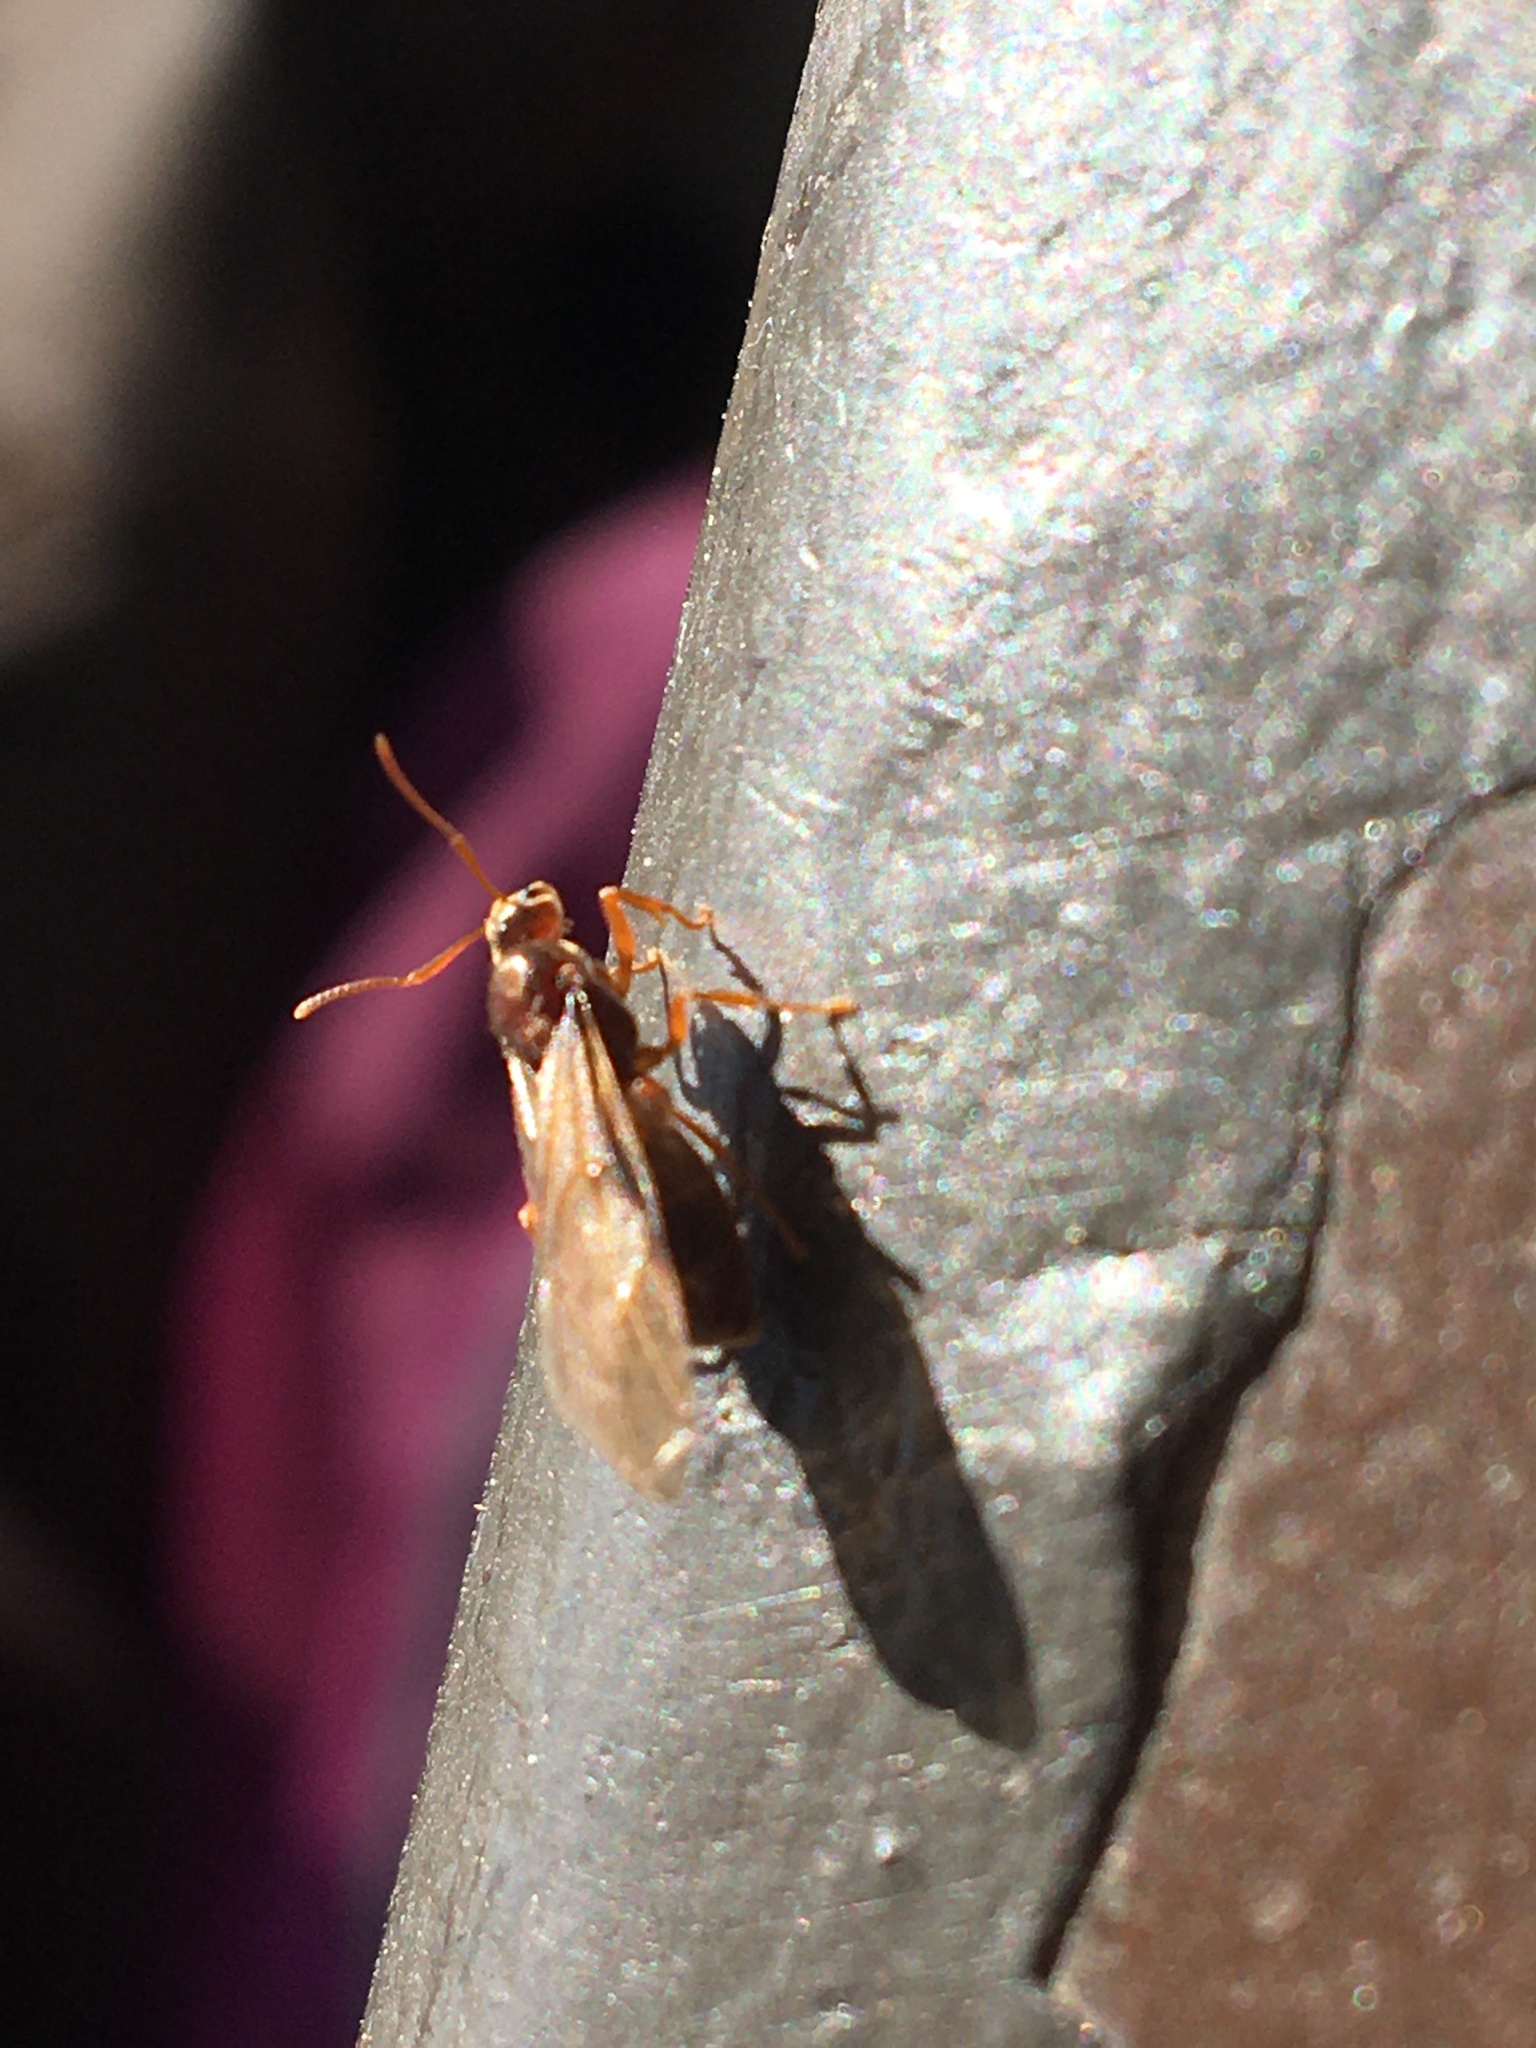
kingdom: Animalia
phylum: Arthropoda
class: Insecta
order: Hymenoptera
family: Formicidae
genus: Prenolepis
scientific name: Prenolepis imparis
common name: Small honey ant
